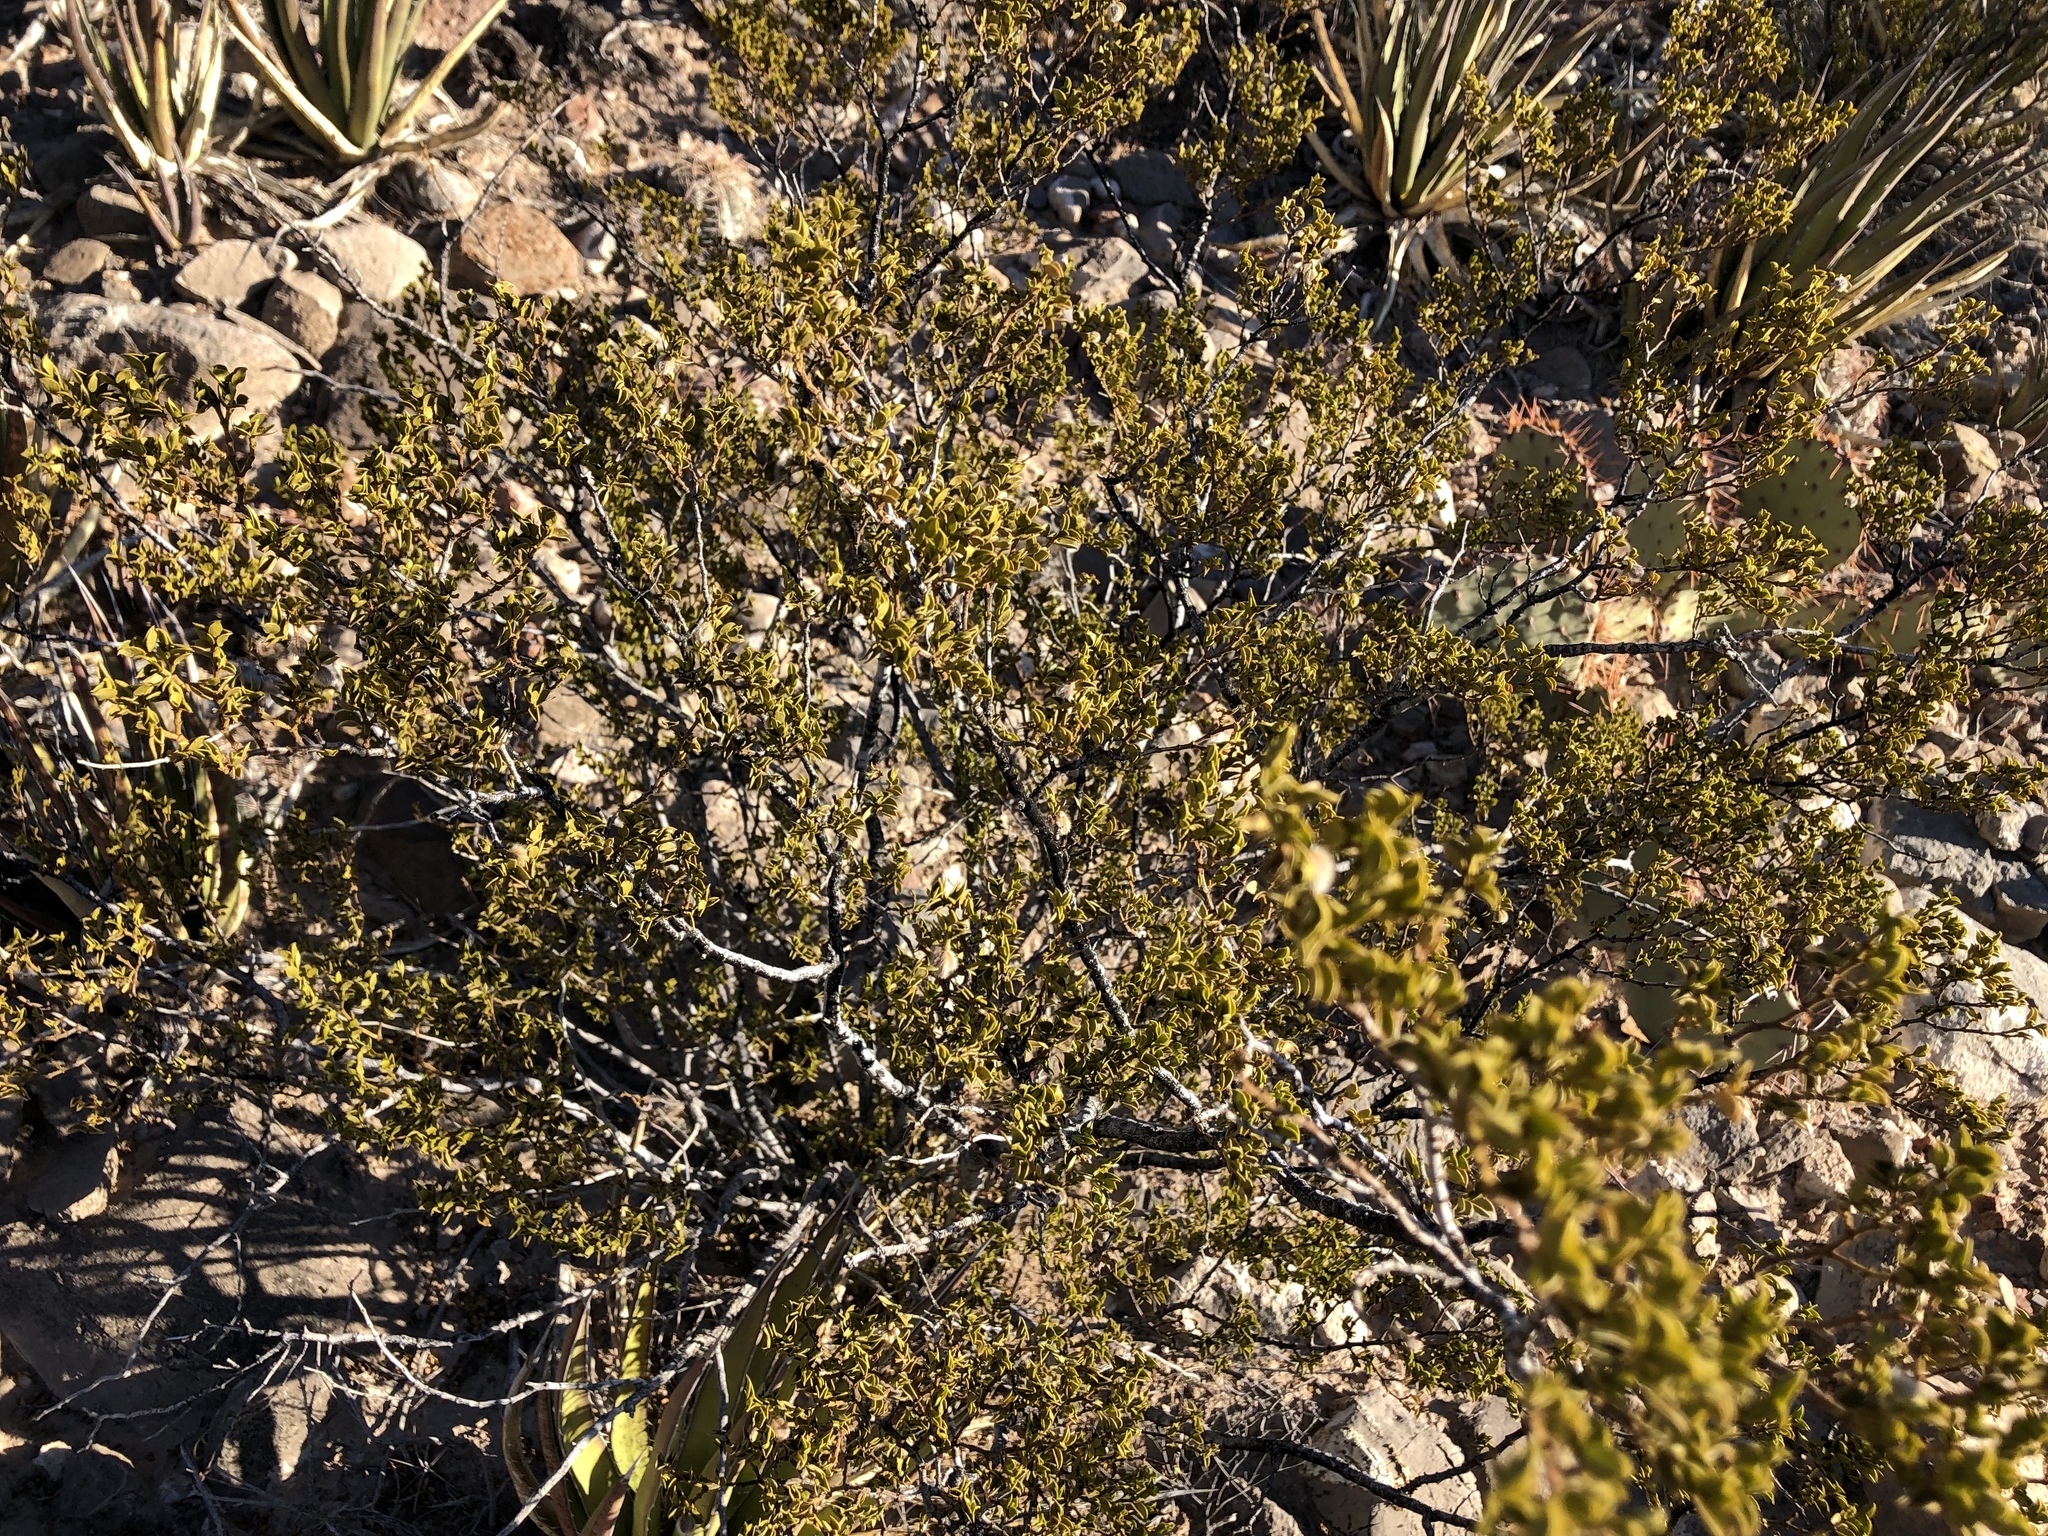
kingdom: Plantae
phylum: Tracheophyta
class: Magnoliopsida
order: Zygophyllales
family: Zygophyllaceae
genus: Larrea
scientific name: Larrea tridentata
